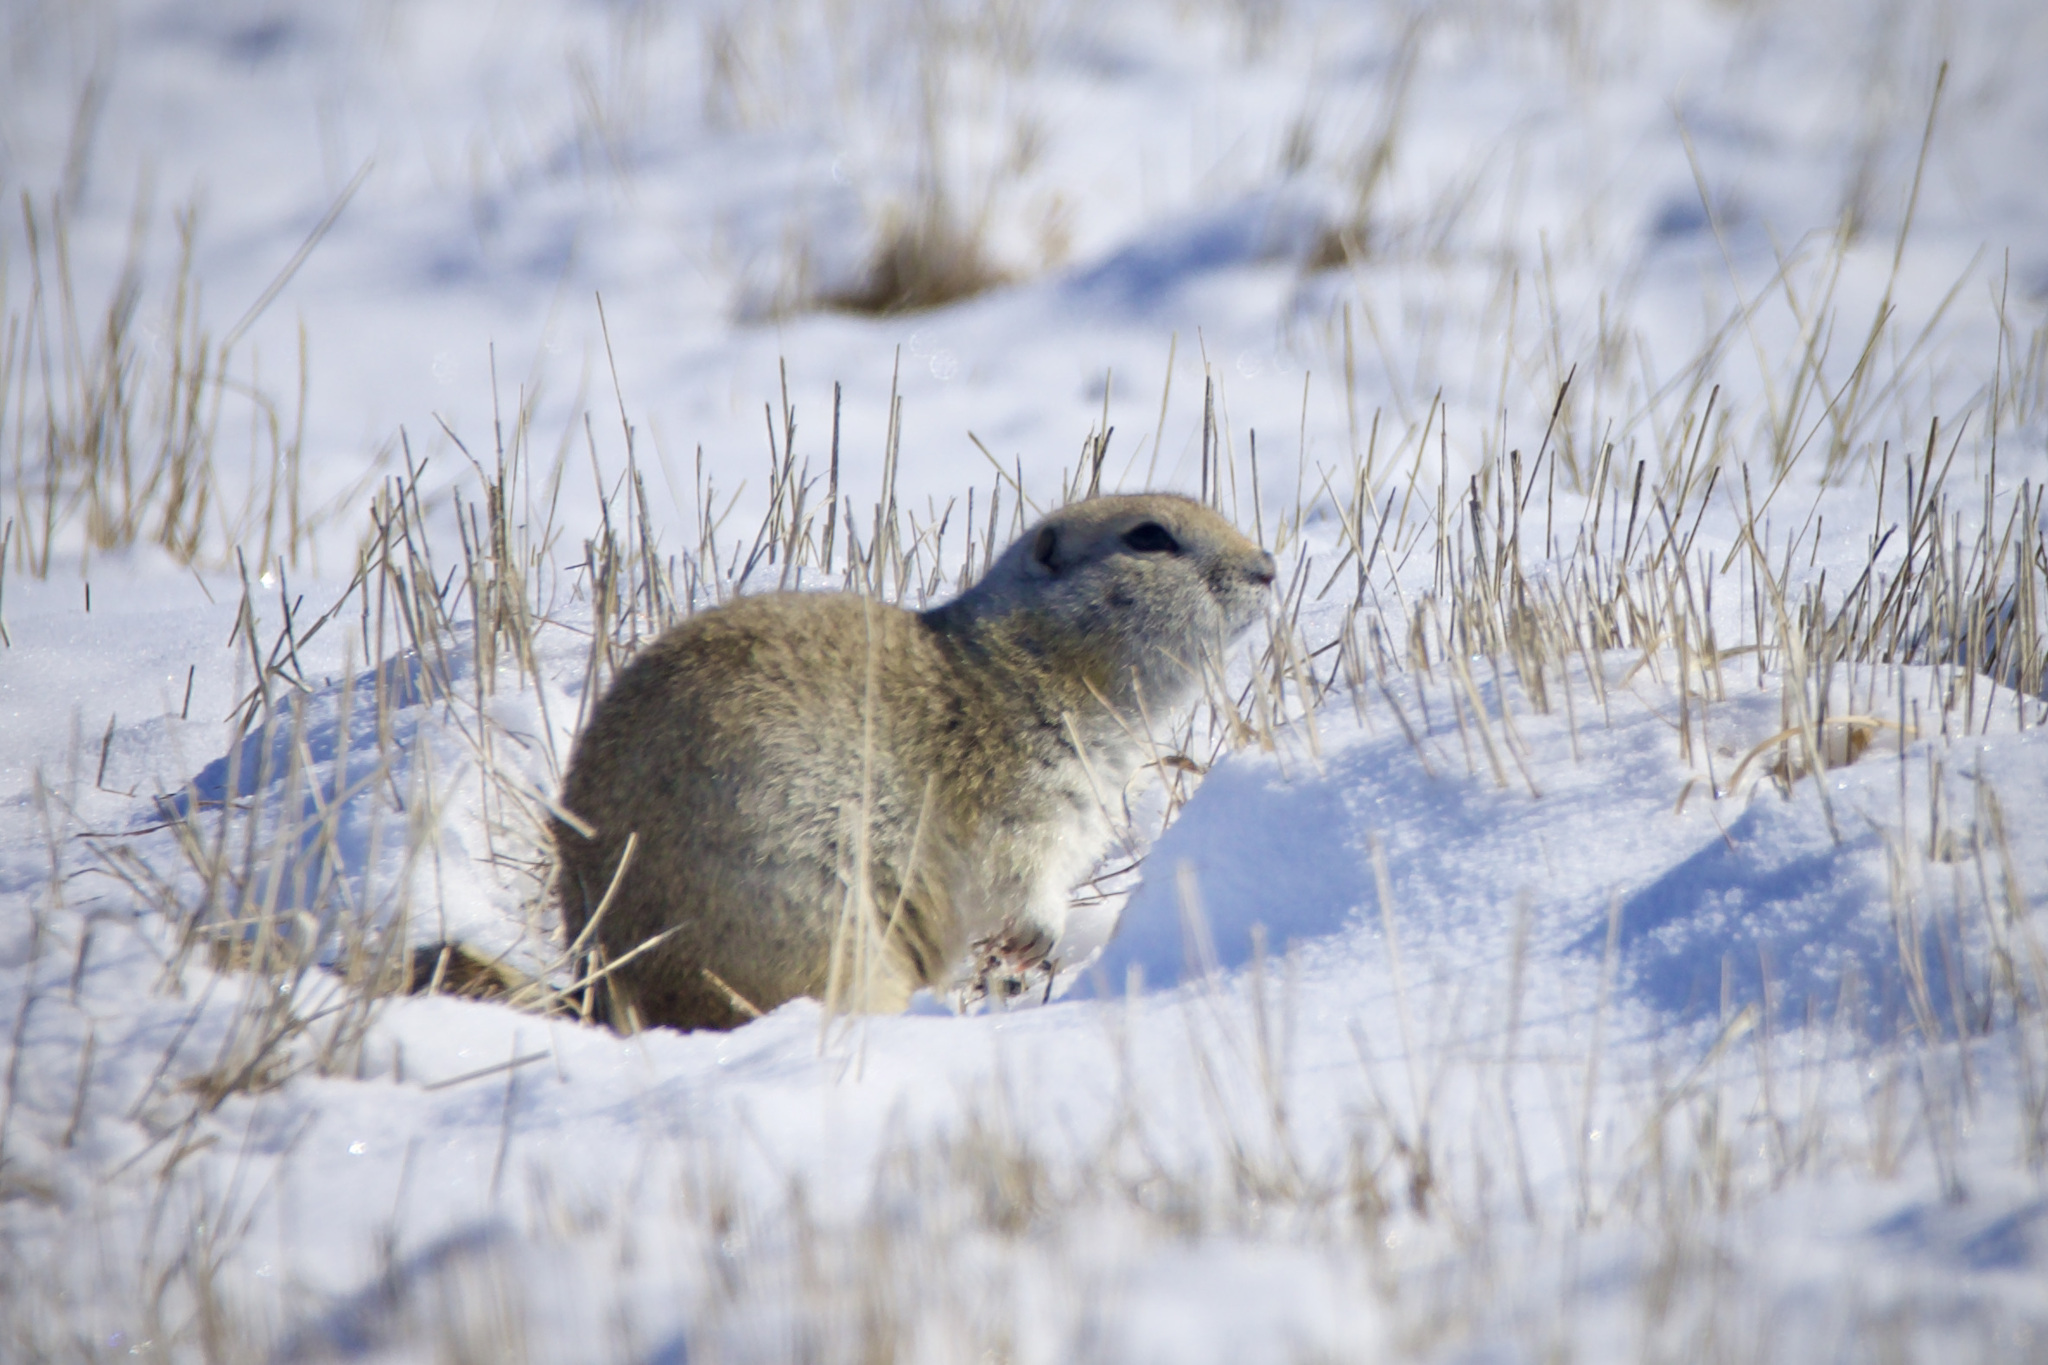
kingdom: Animalia
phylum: Chordata
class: Mammalia
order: Rodentia
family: Sciuridae
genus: Urocitellus
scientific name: Urocitellus richardsonii
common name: Richardson's ground squirrel
